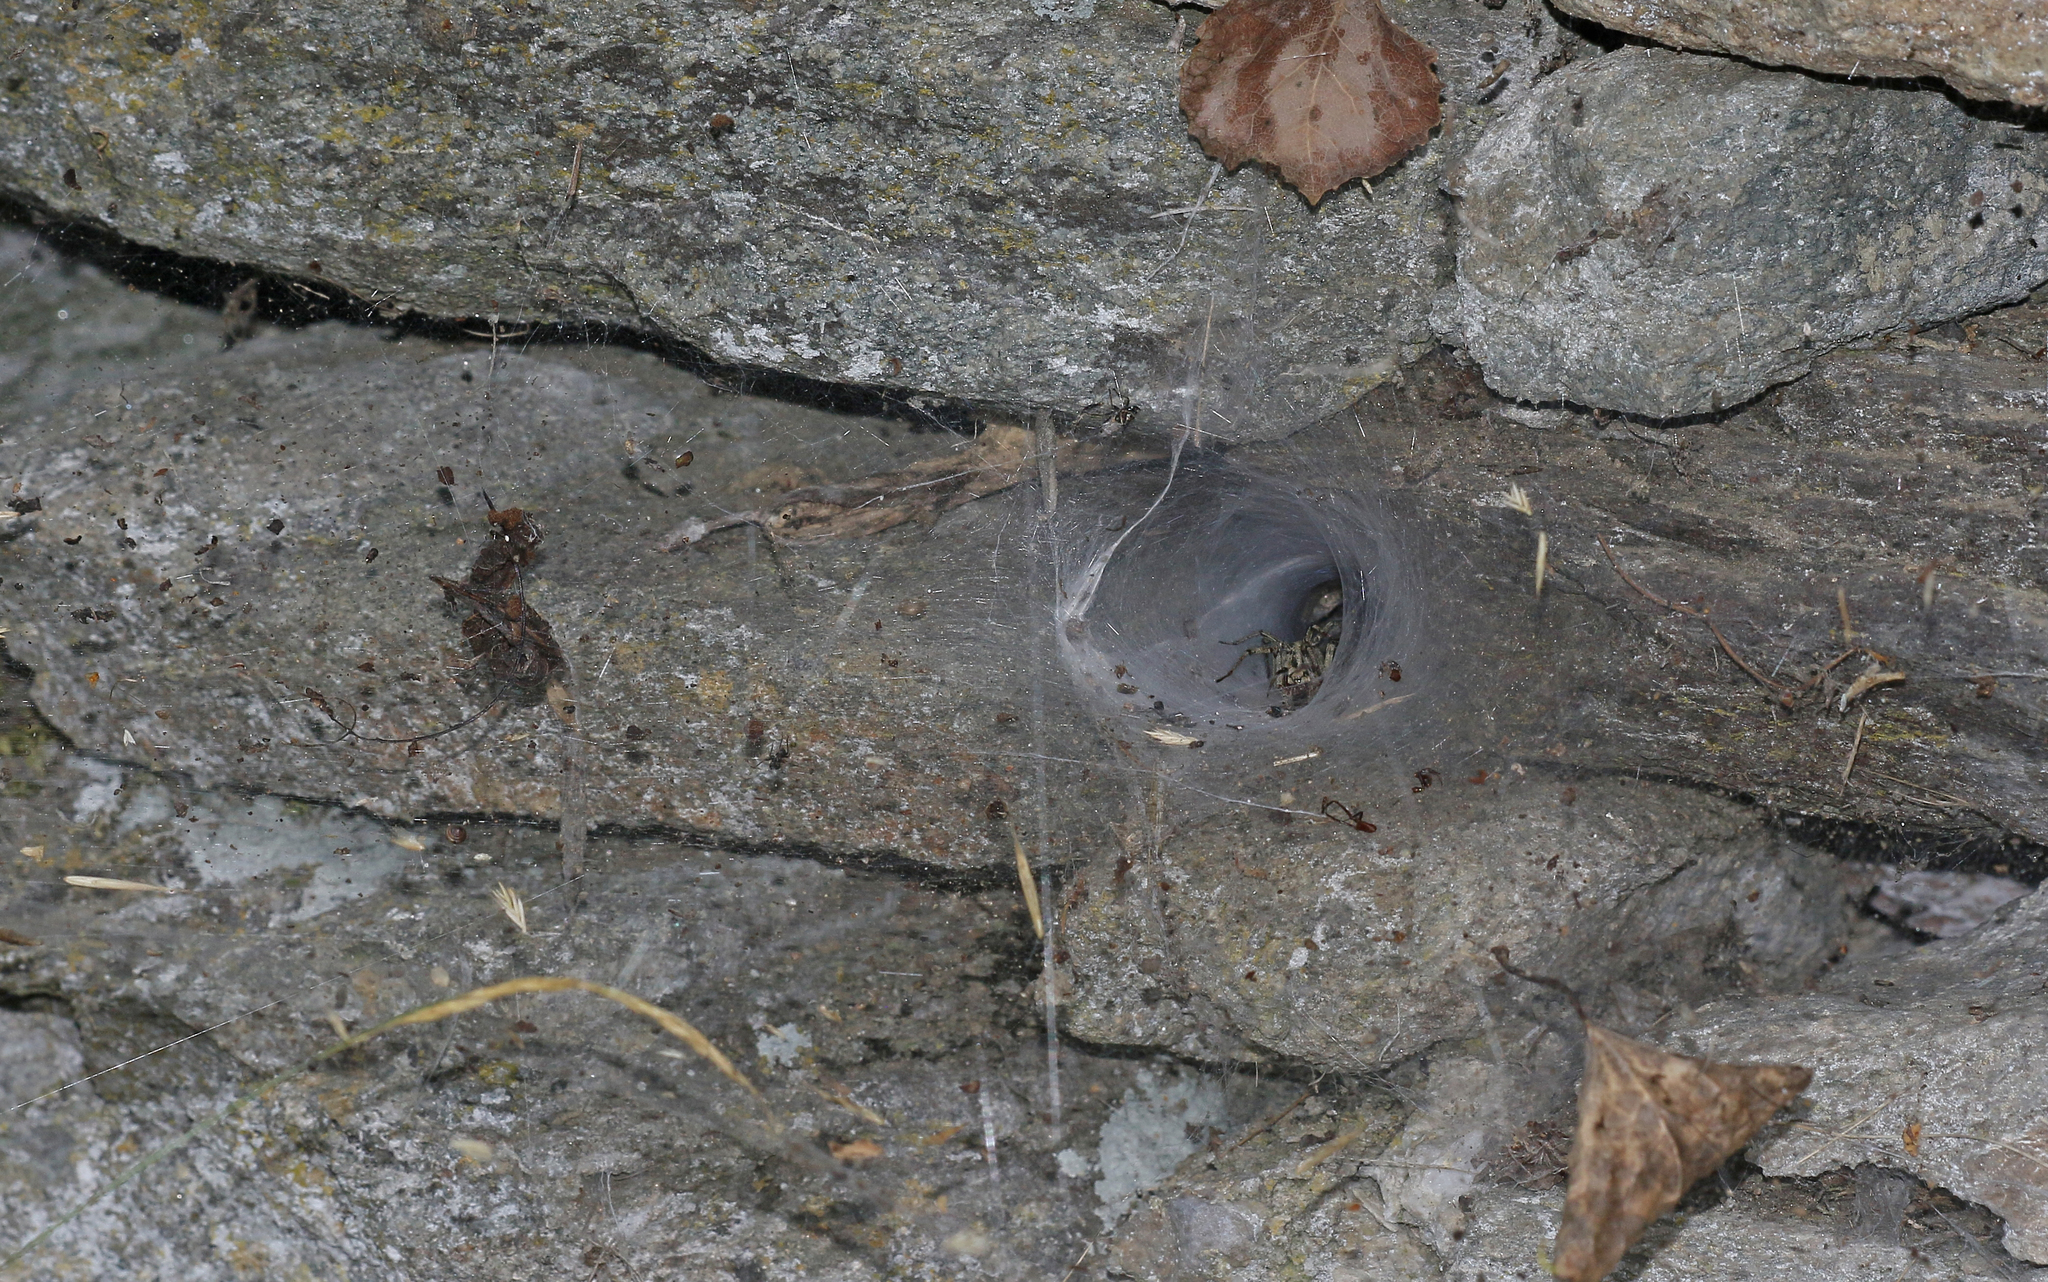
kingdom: Animalia
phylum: Arthropoda
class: Arachnida
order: Araneae
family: Agelenidae
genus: Agelena
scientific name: Agelena labyrinthica
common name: Labyrinth spider
